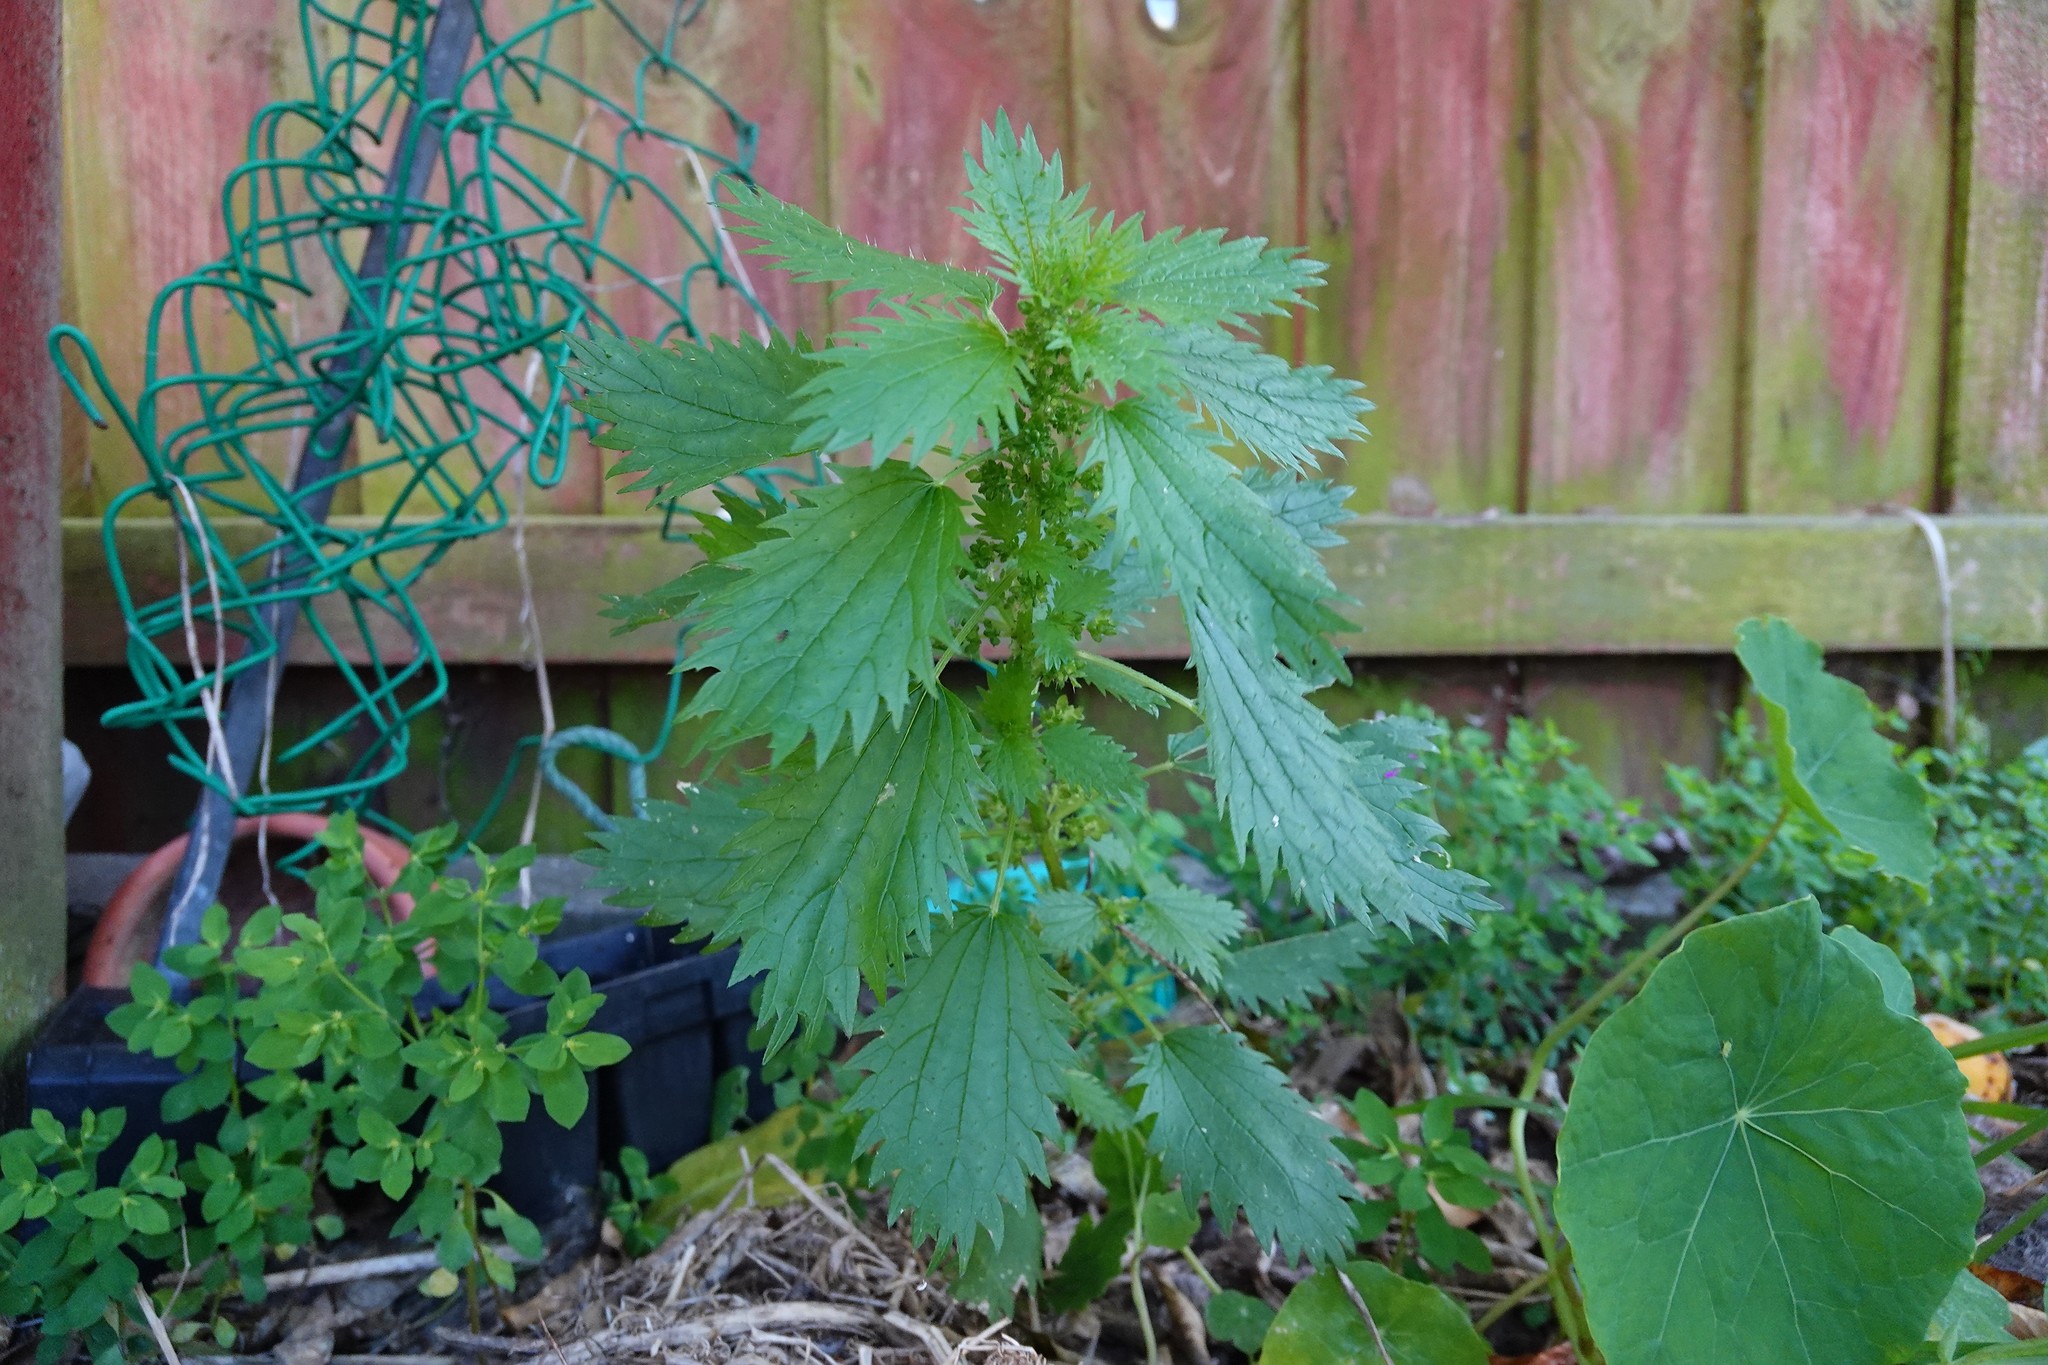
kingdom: Plantae
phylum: Tracheophyta
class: Magnoliopsida
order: Rosales
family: Urticaceae
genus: Urtica
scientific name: Urtica urens
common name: Dwarf nettle
